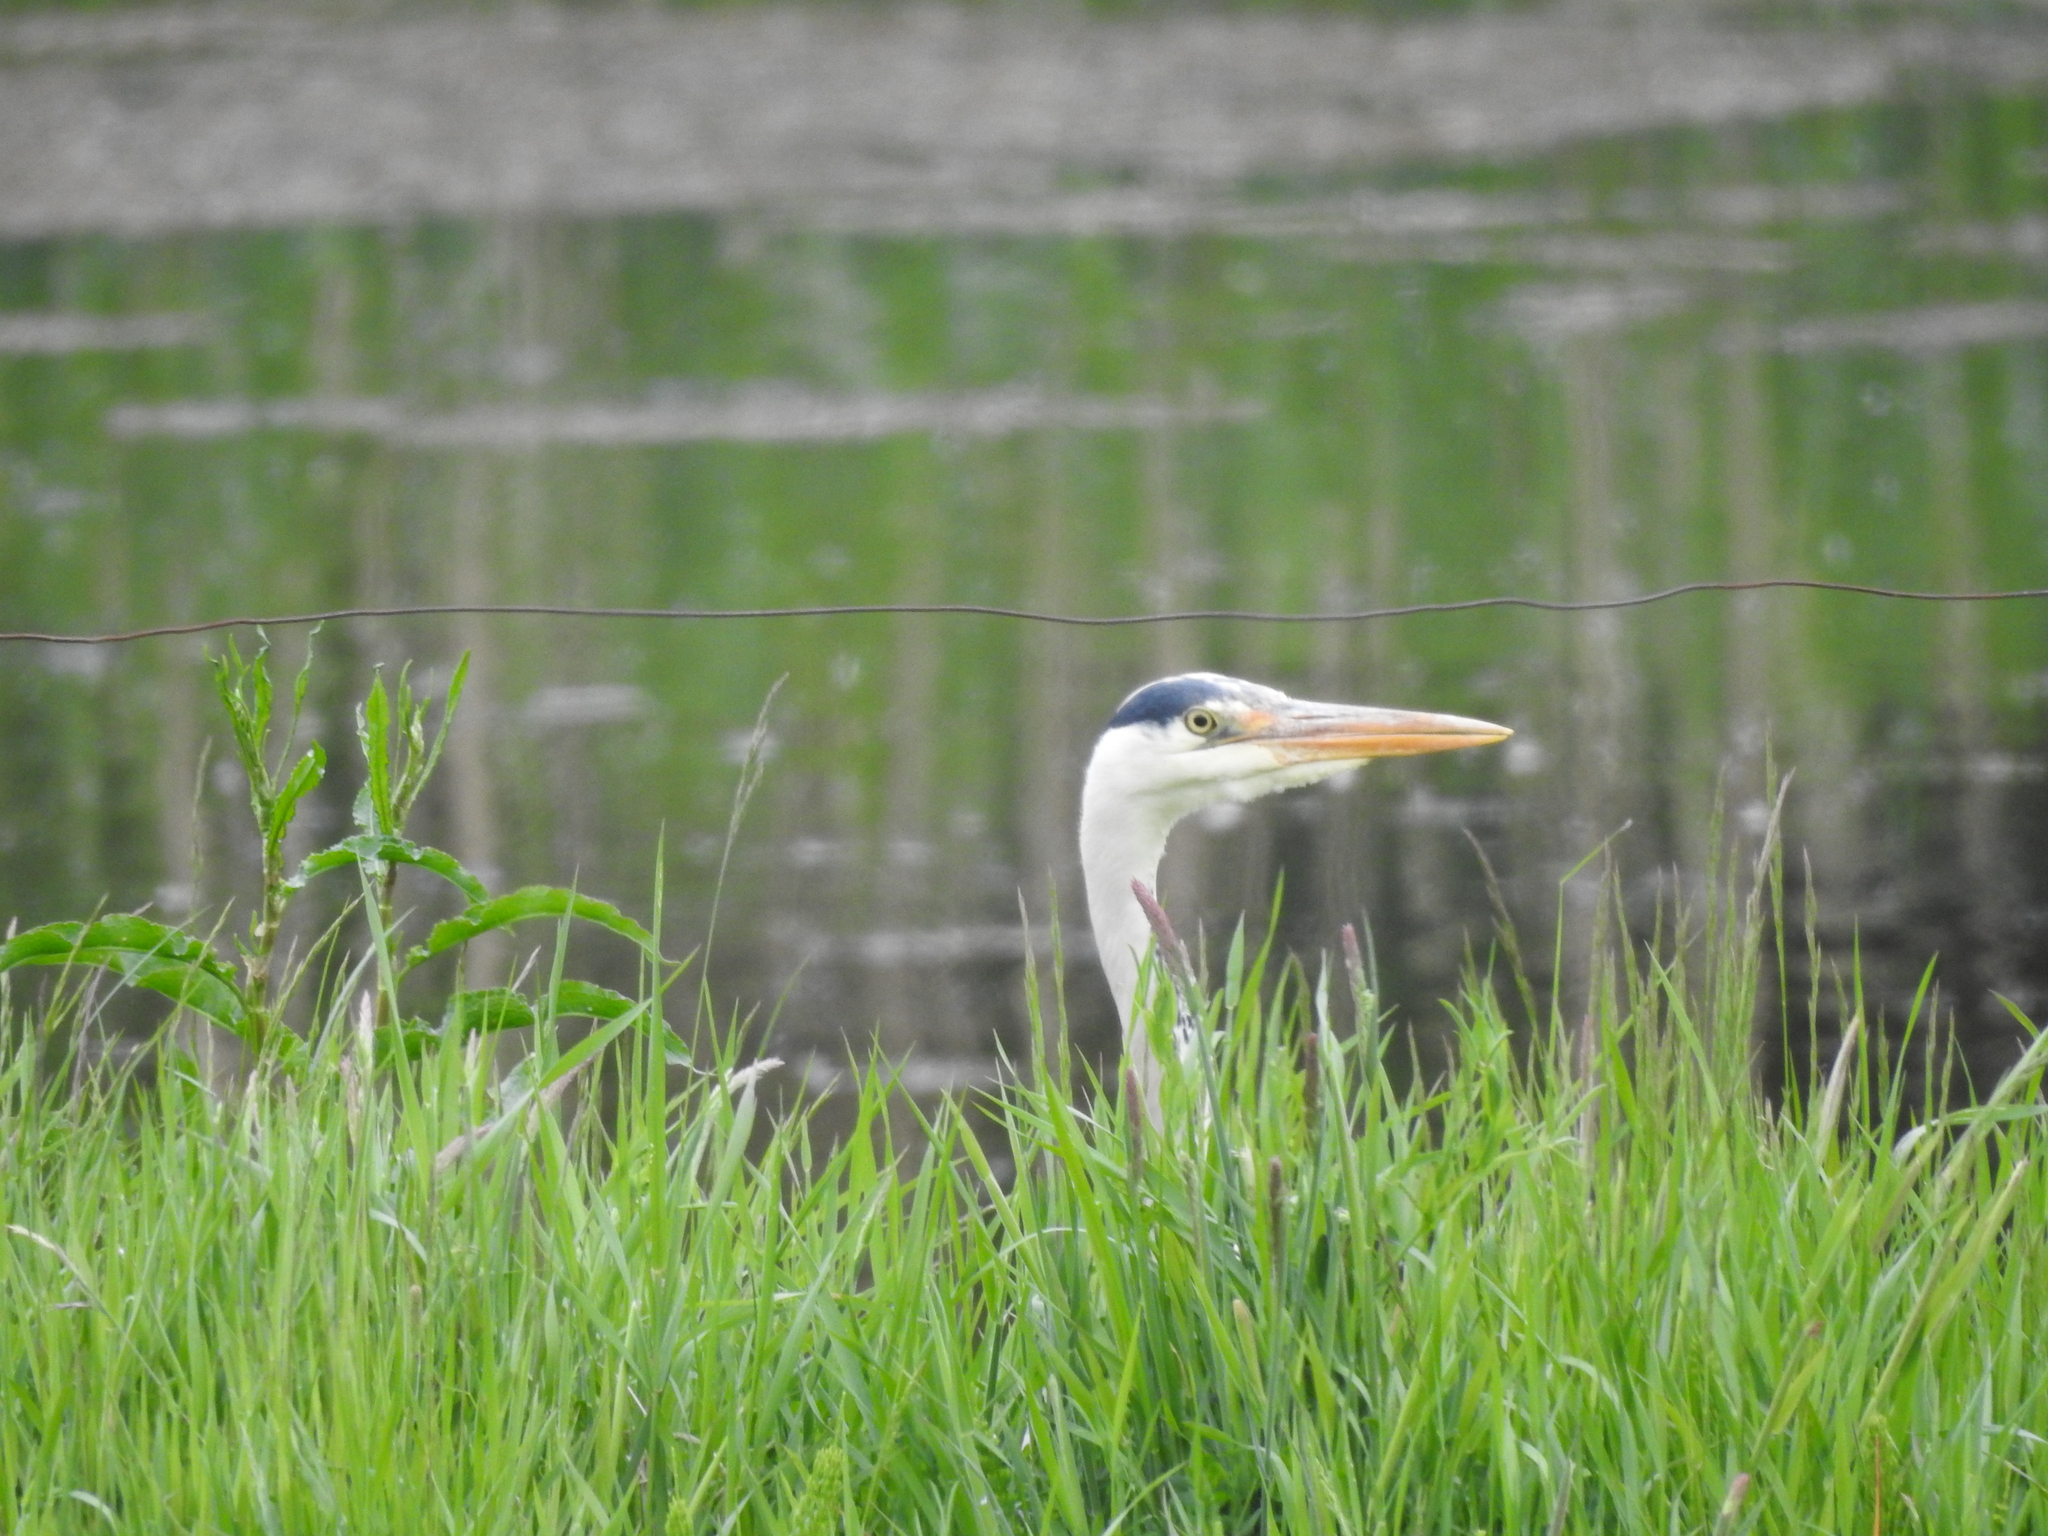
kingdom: Animalia
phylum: Chordata
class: Aves
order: Pelecaniformes
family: Ardeidae
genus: Ardea
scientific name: Ardea cinerea
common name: Grey heron
